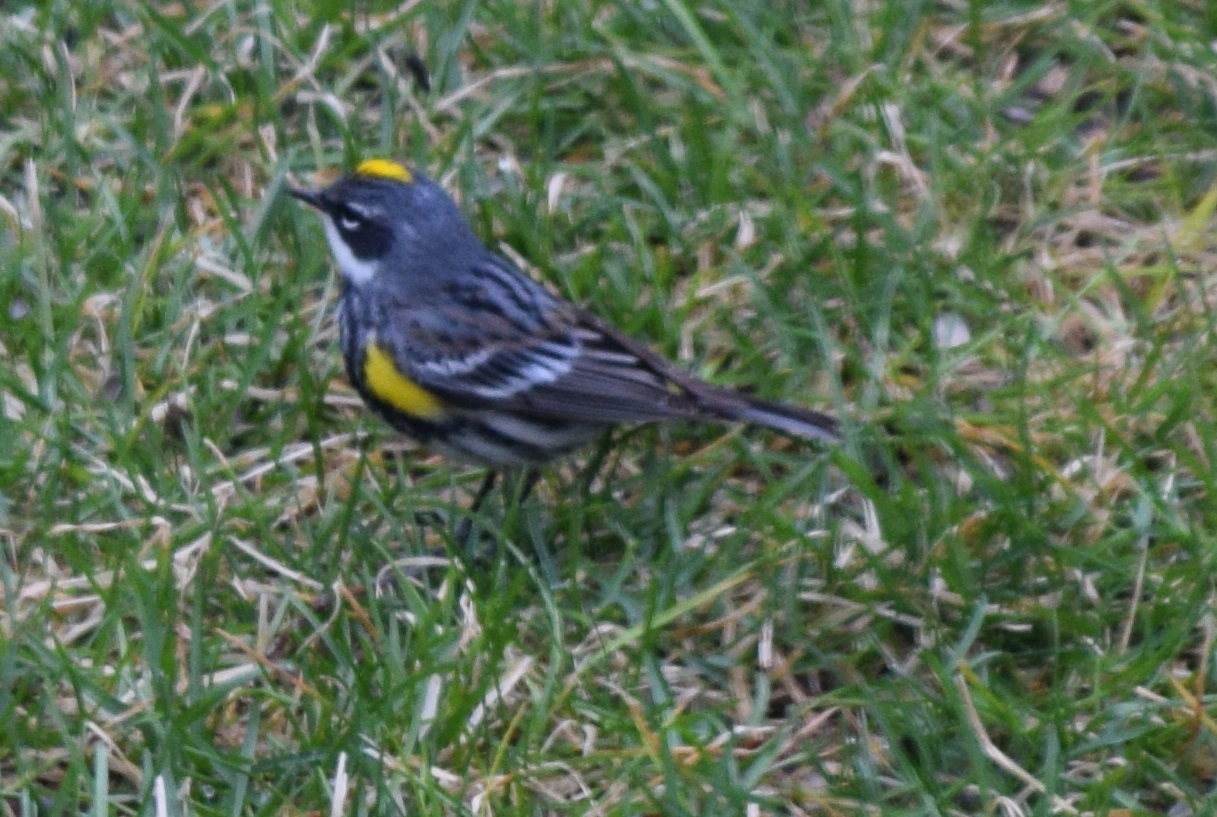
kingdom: Animalia
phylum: Chordata
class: Aves
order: Passeriformes
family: Parulidae
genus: Setophaga
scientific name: Setophaga coronata
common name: Myrtle warbler
